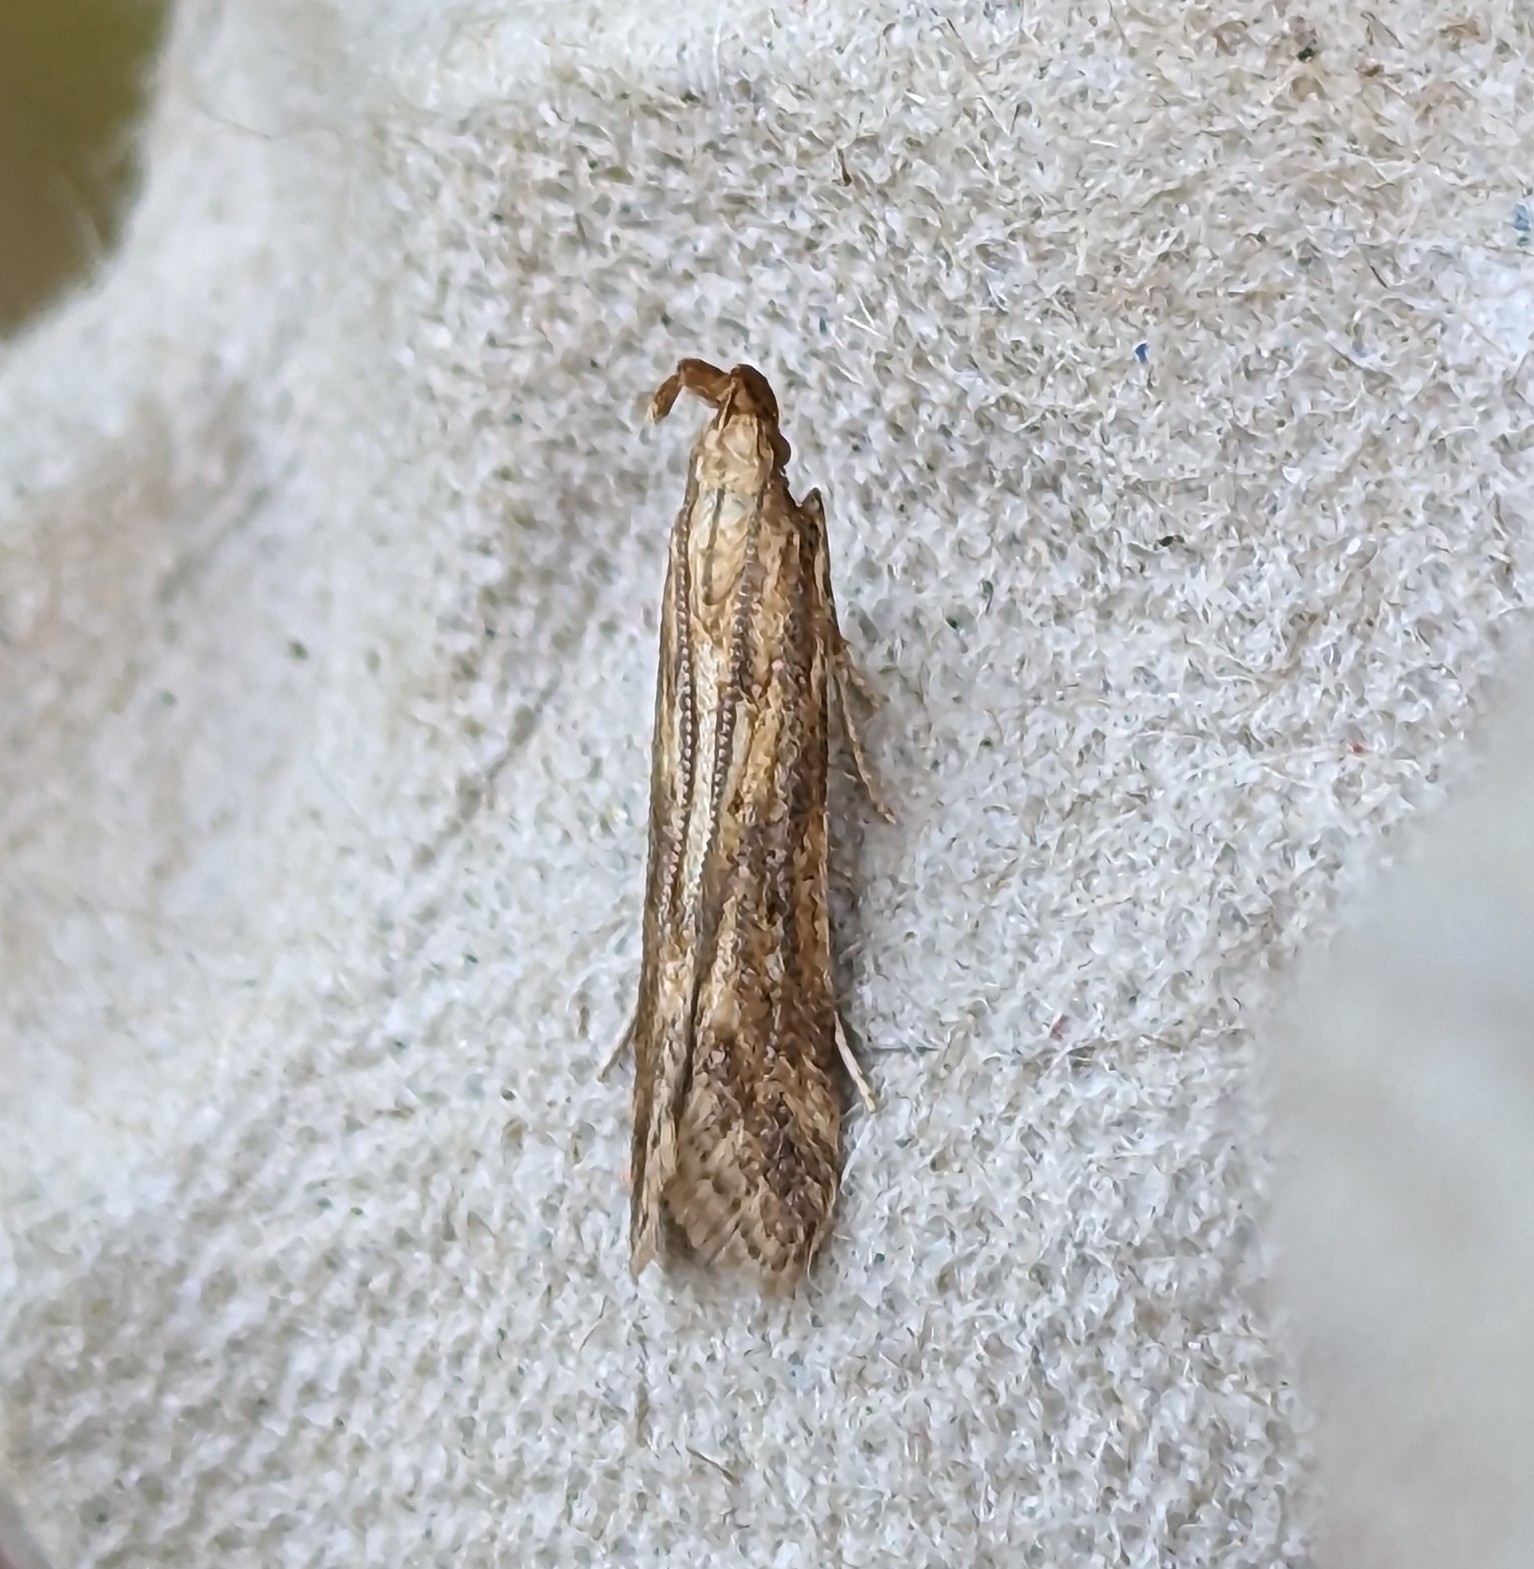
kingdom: Animalia
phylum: Arthropoda
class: Insecta
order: Lepidoptera
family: Gelechiidae
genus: Metzneria
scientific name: Metzneria lappella
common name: Burdock neb
